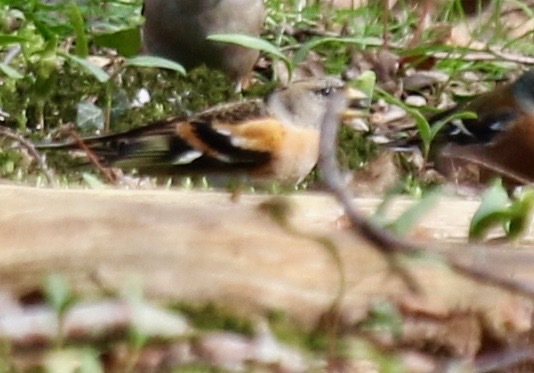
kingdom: Animalia
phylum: Chordata
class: Aves
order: Passeriformes
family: Fringillidae
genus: Fringilla
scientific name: Fringilla montifringilla
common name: Brambling
